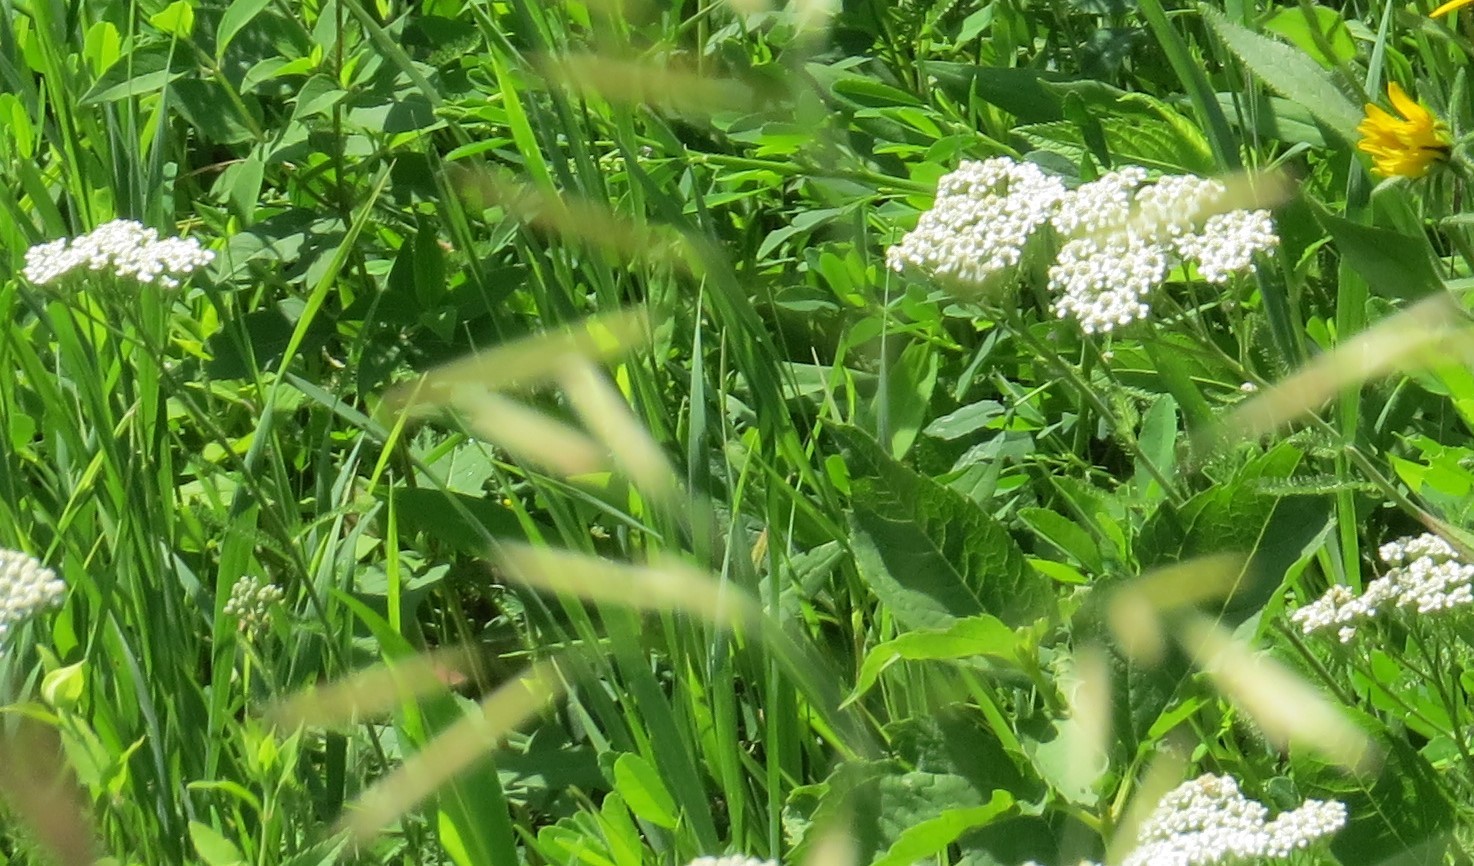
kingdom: Plantae
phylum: Tracheophyta
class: Magnoliopsida
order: Asterales
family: Asteraceae
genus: Achillea
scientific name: Achillea millefolium
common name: Yarrow
